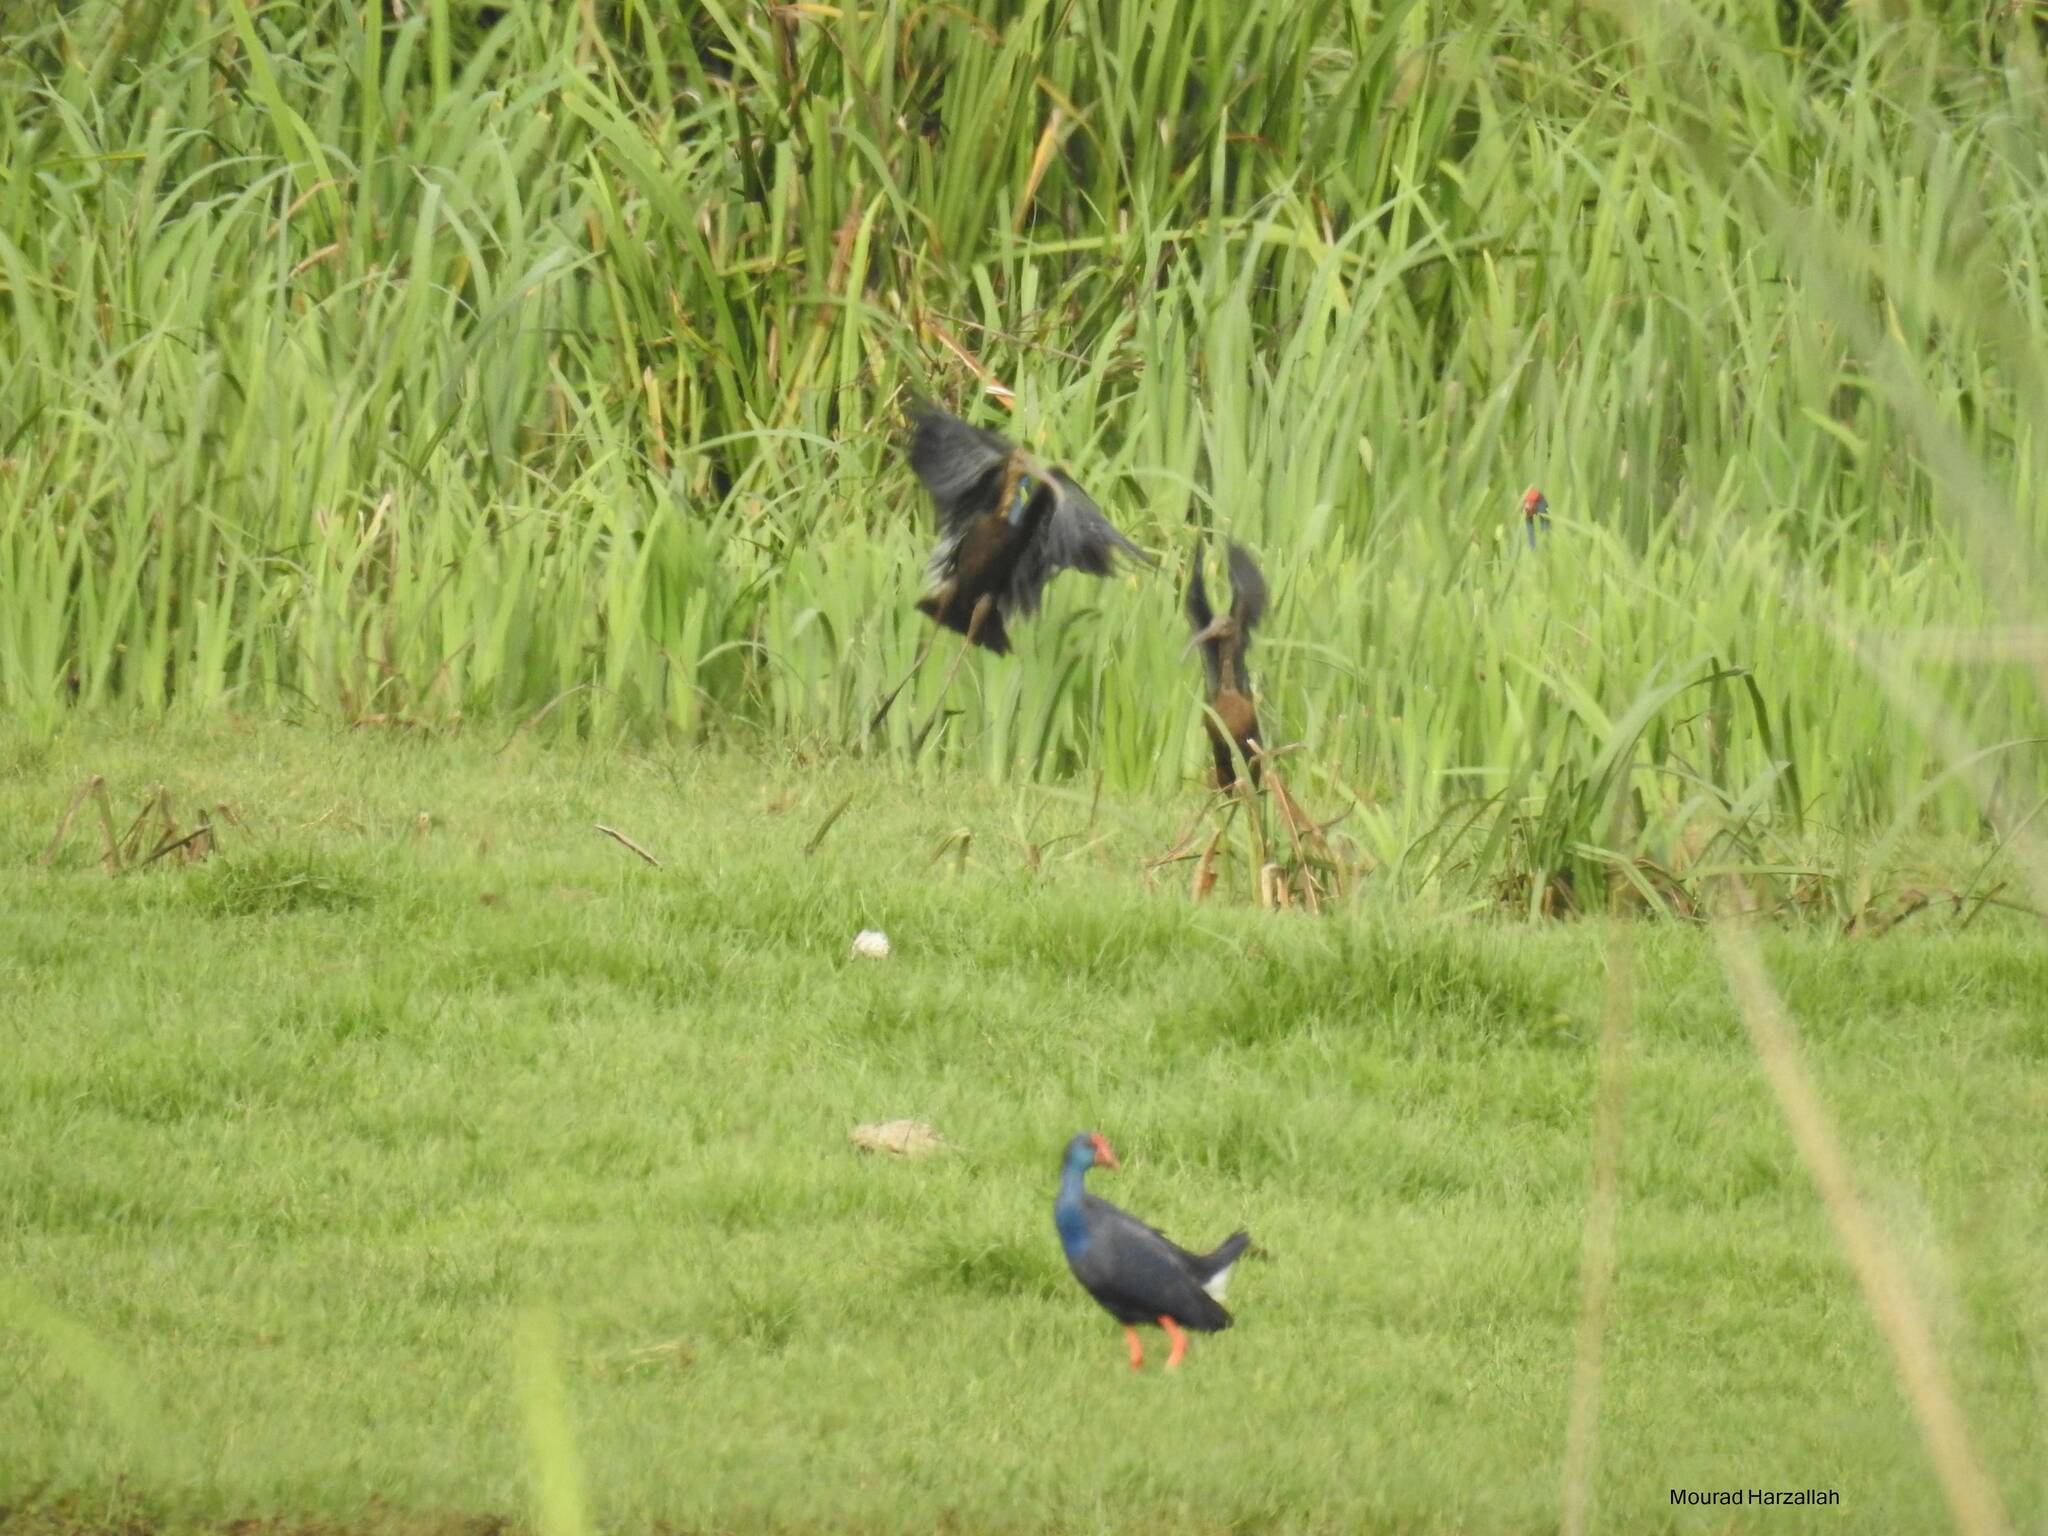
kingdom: Animalia
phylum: Chordata
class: Aves
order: Gruiformes
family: Rallidae
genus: Porphyrio
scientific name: Porphyrio porphyrio
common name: Purple swamphen
